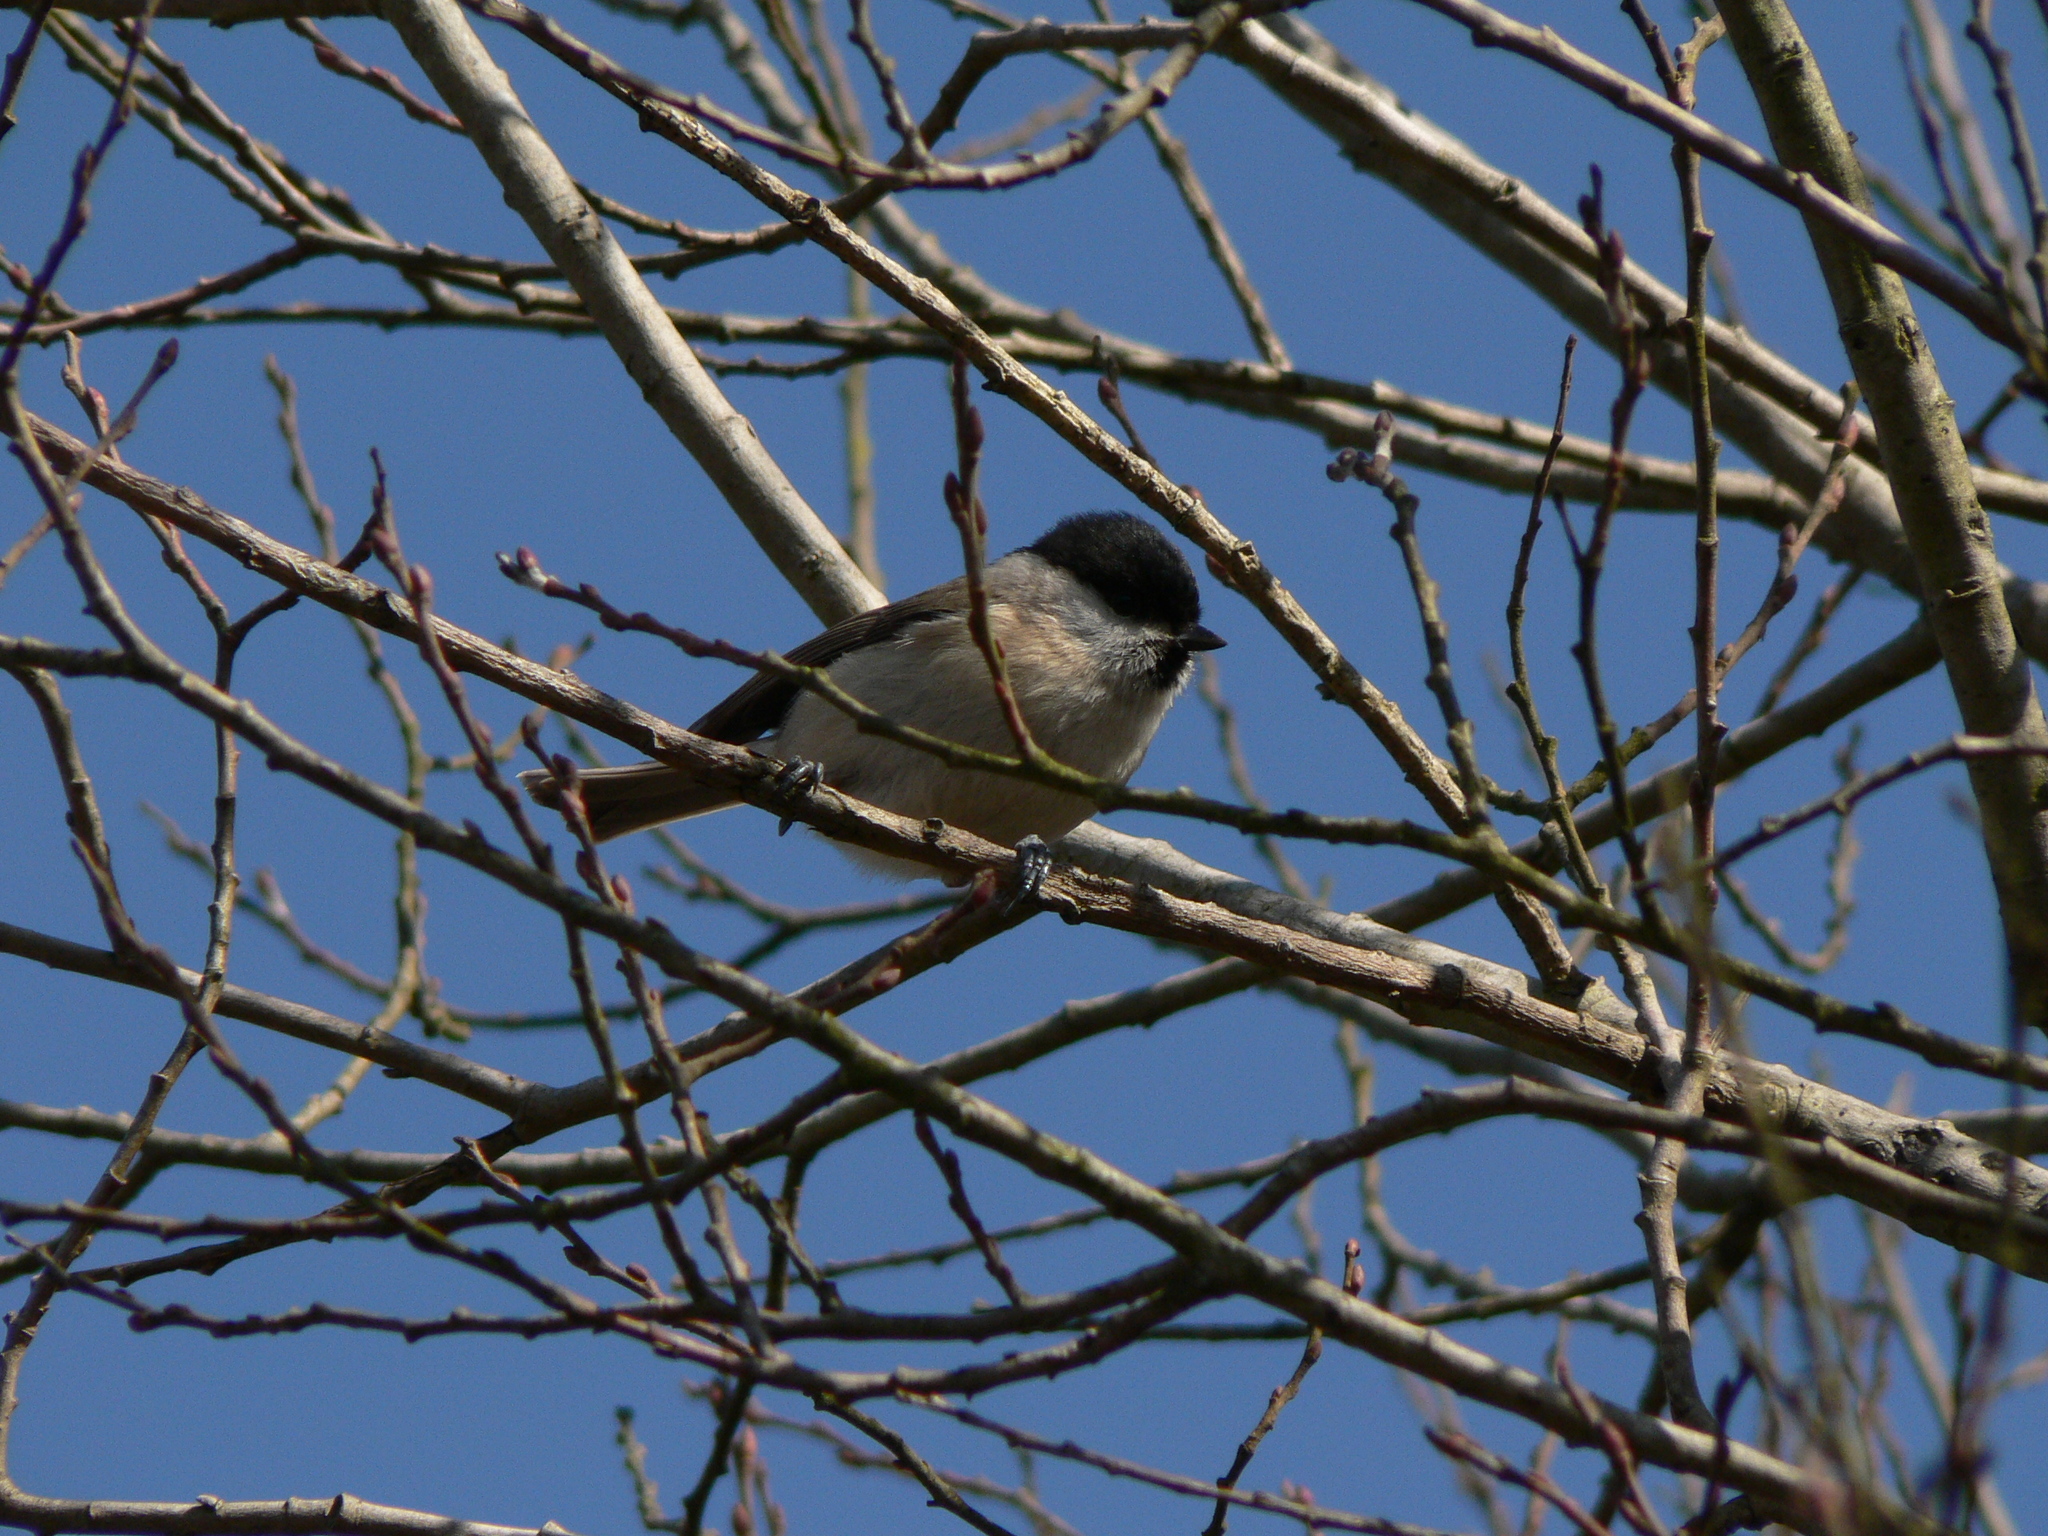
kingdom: Animalia
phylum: Chordata
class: Aves
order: Passeriformes
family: Paridae
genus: Poecile
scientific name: Poecile palustris
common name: Marsh tit
